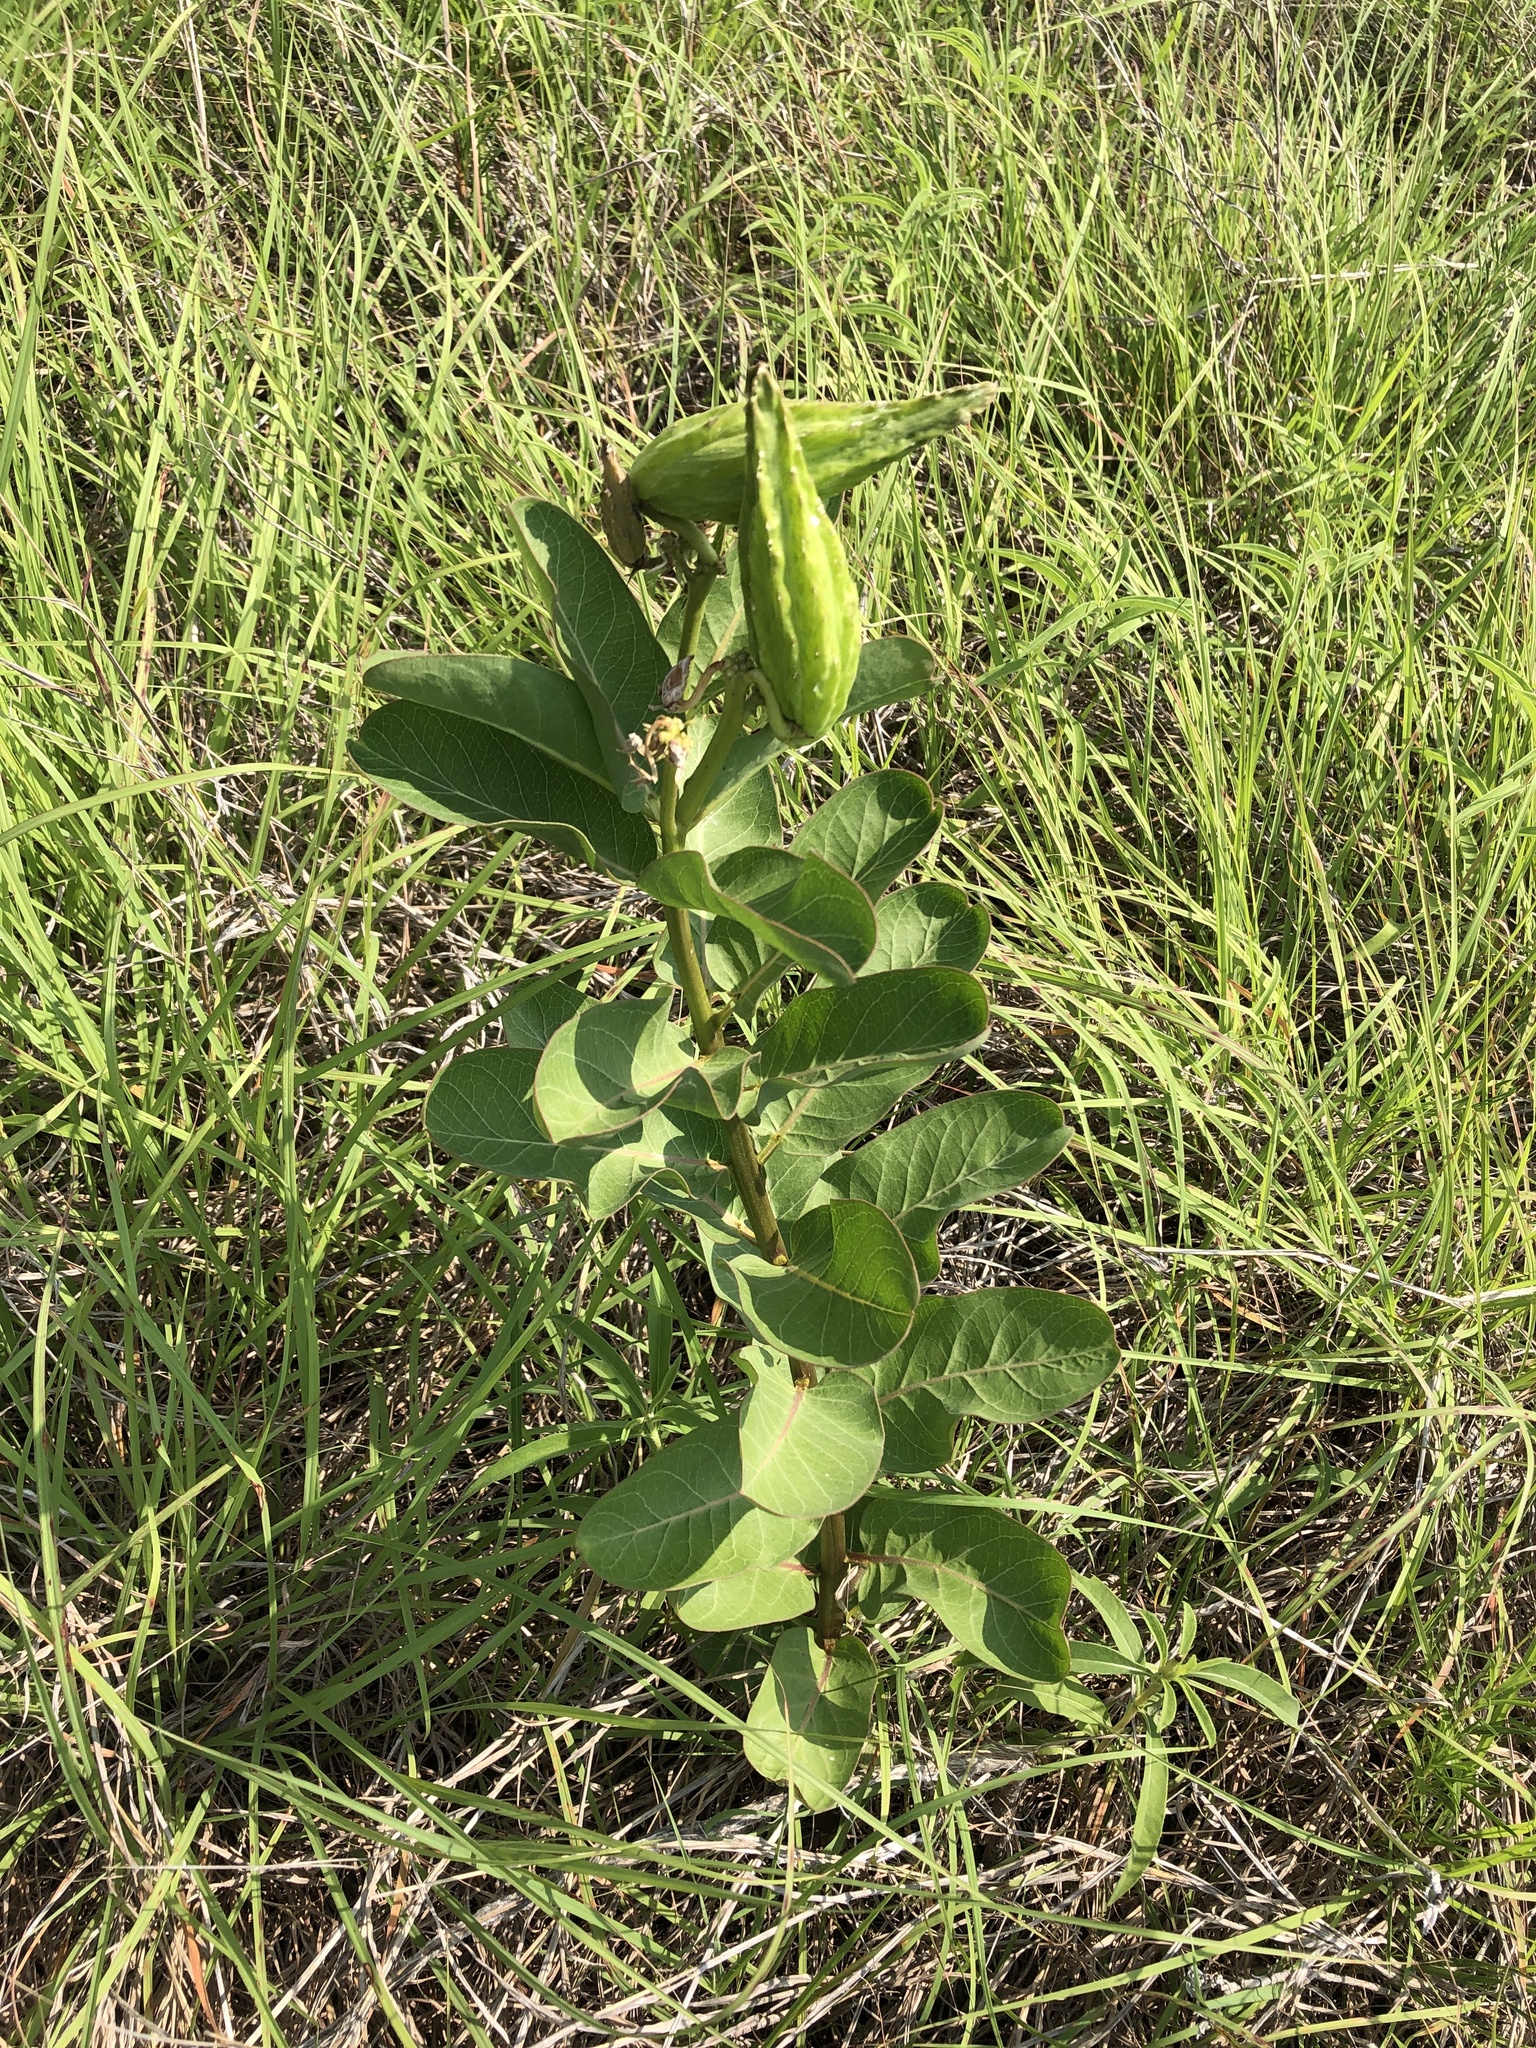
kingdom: Plantae
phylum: Tracheophyta
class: Magnoliopsida
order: Gentianales
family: Apocynaceae
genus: Asclepias
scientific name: Asclepias viridis
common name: Antelope-horns
